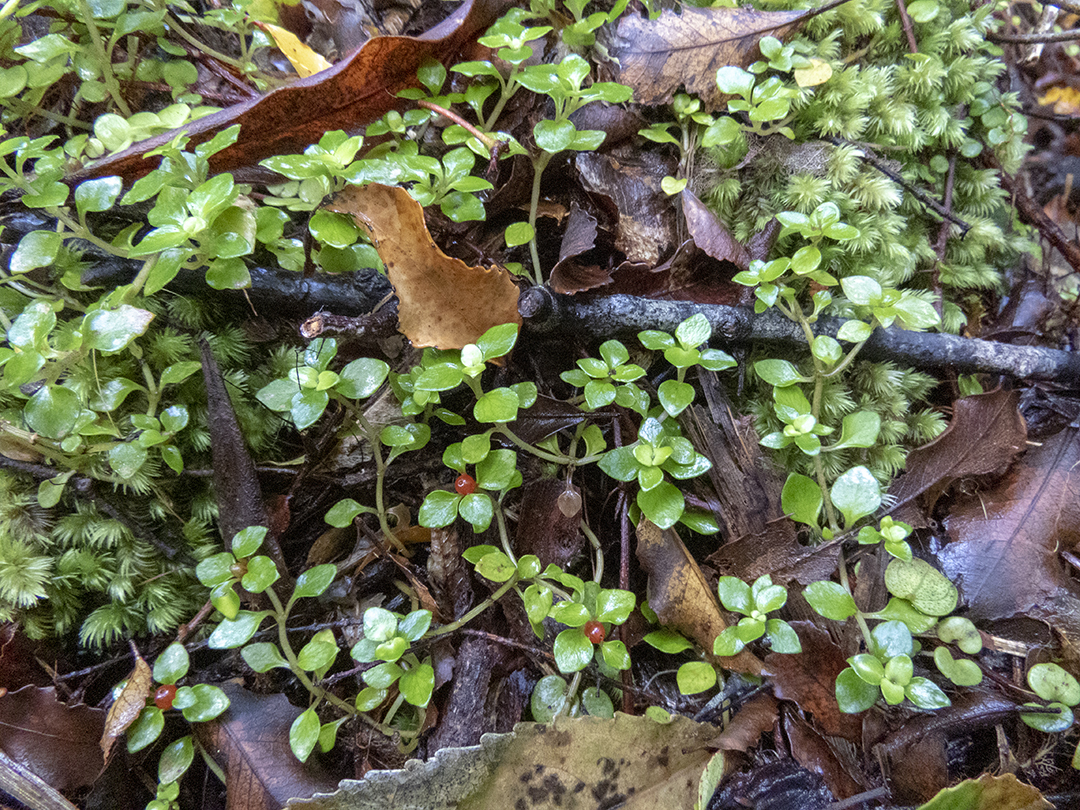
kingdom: Plantae
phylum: Tracheophyta
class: Magnoliopsida
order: Gentianales
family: Rubiaceae
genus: Nertera
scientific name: Nertera granadensis
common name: Beadplant
